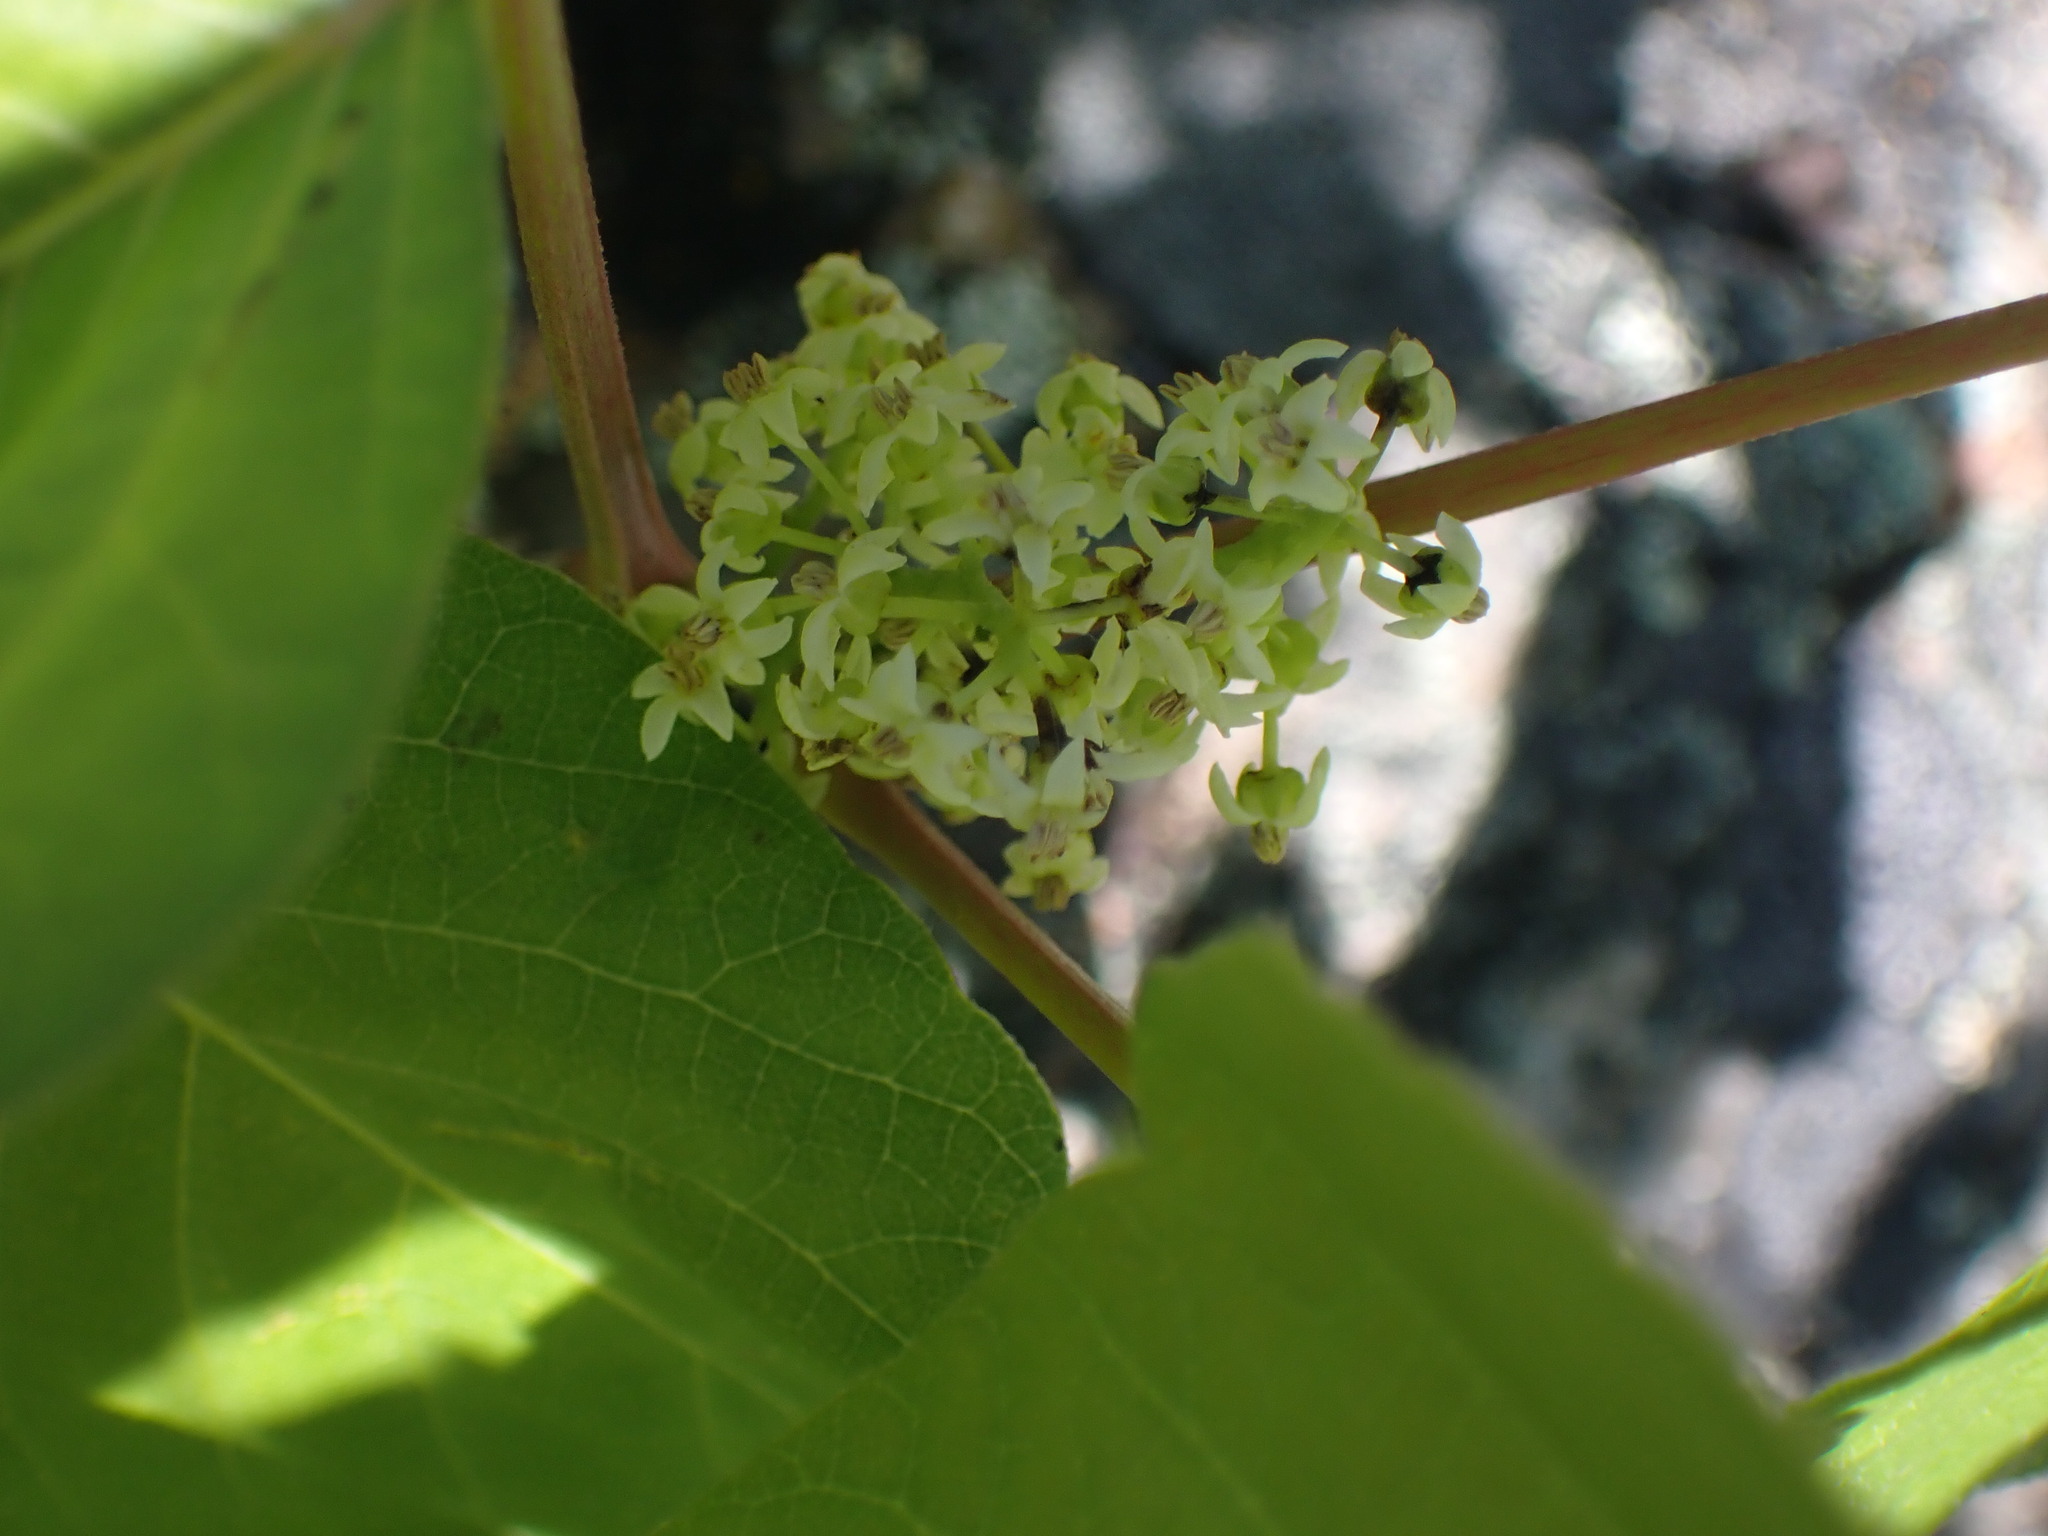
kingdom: Plantae
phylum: Tracheophyta
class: Magnoliopsida
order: Sapindales
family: Anacardiaceae
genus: Toxicodendron
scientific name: Toxicodendron rydbergii
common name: Rydberg's poison-ivy
